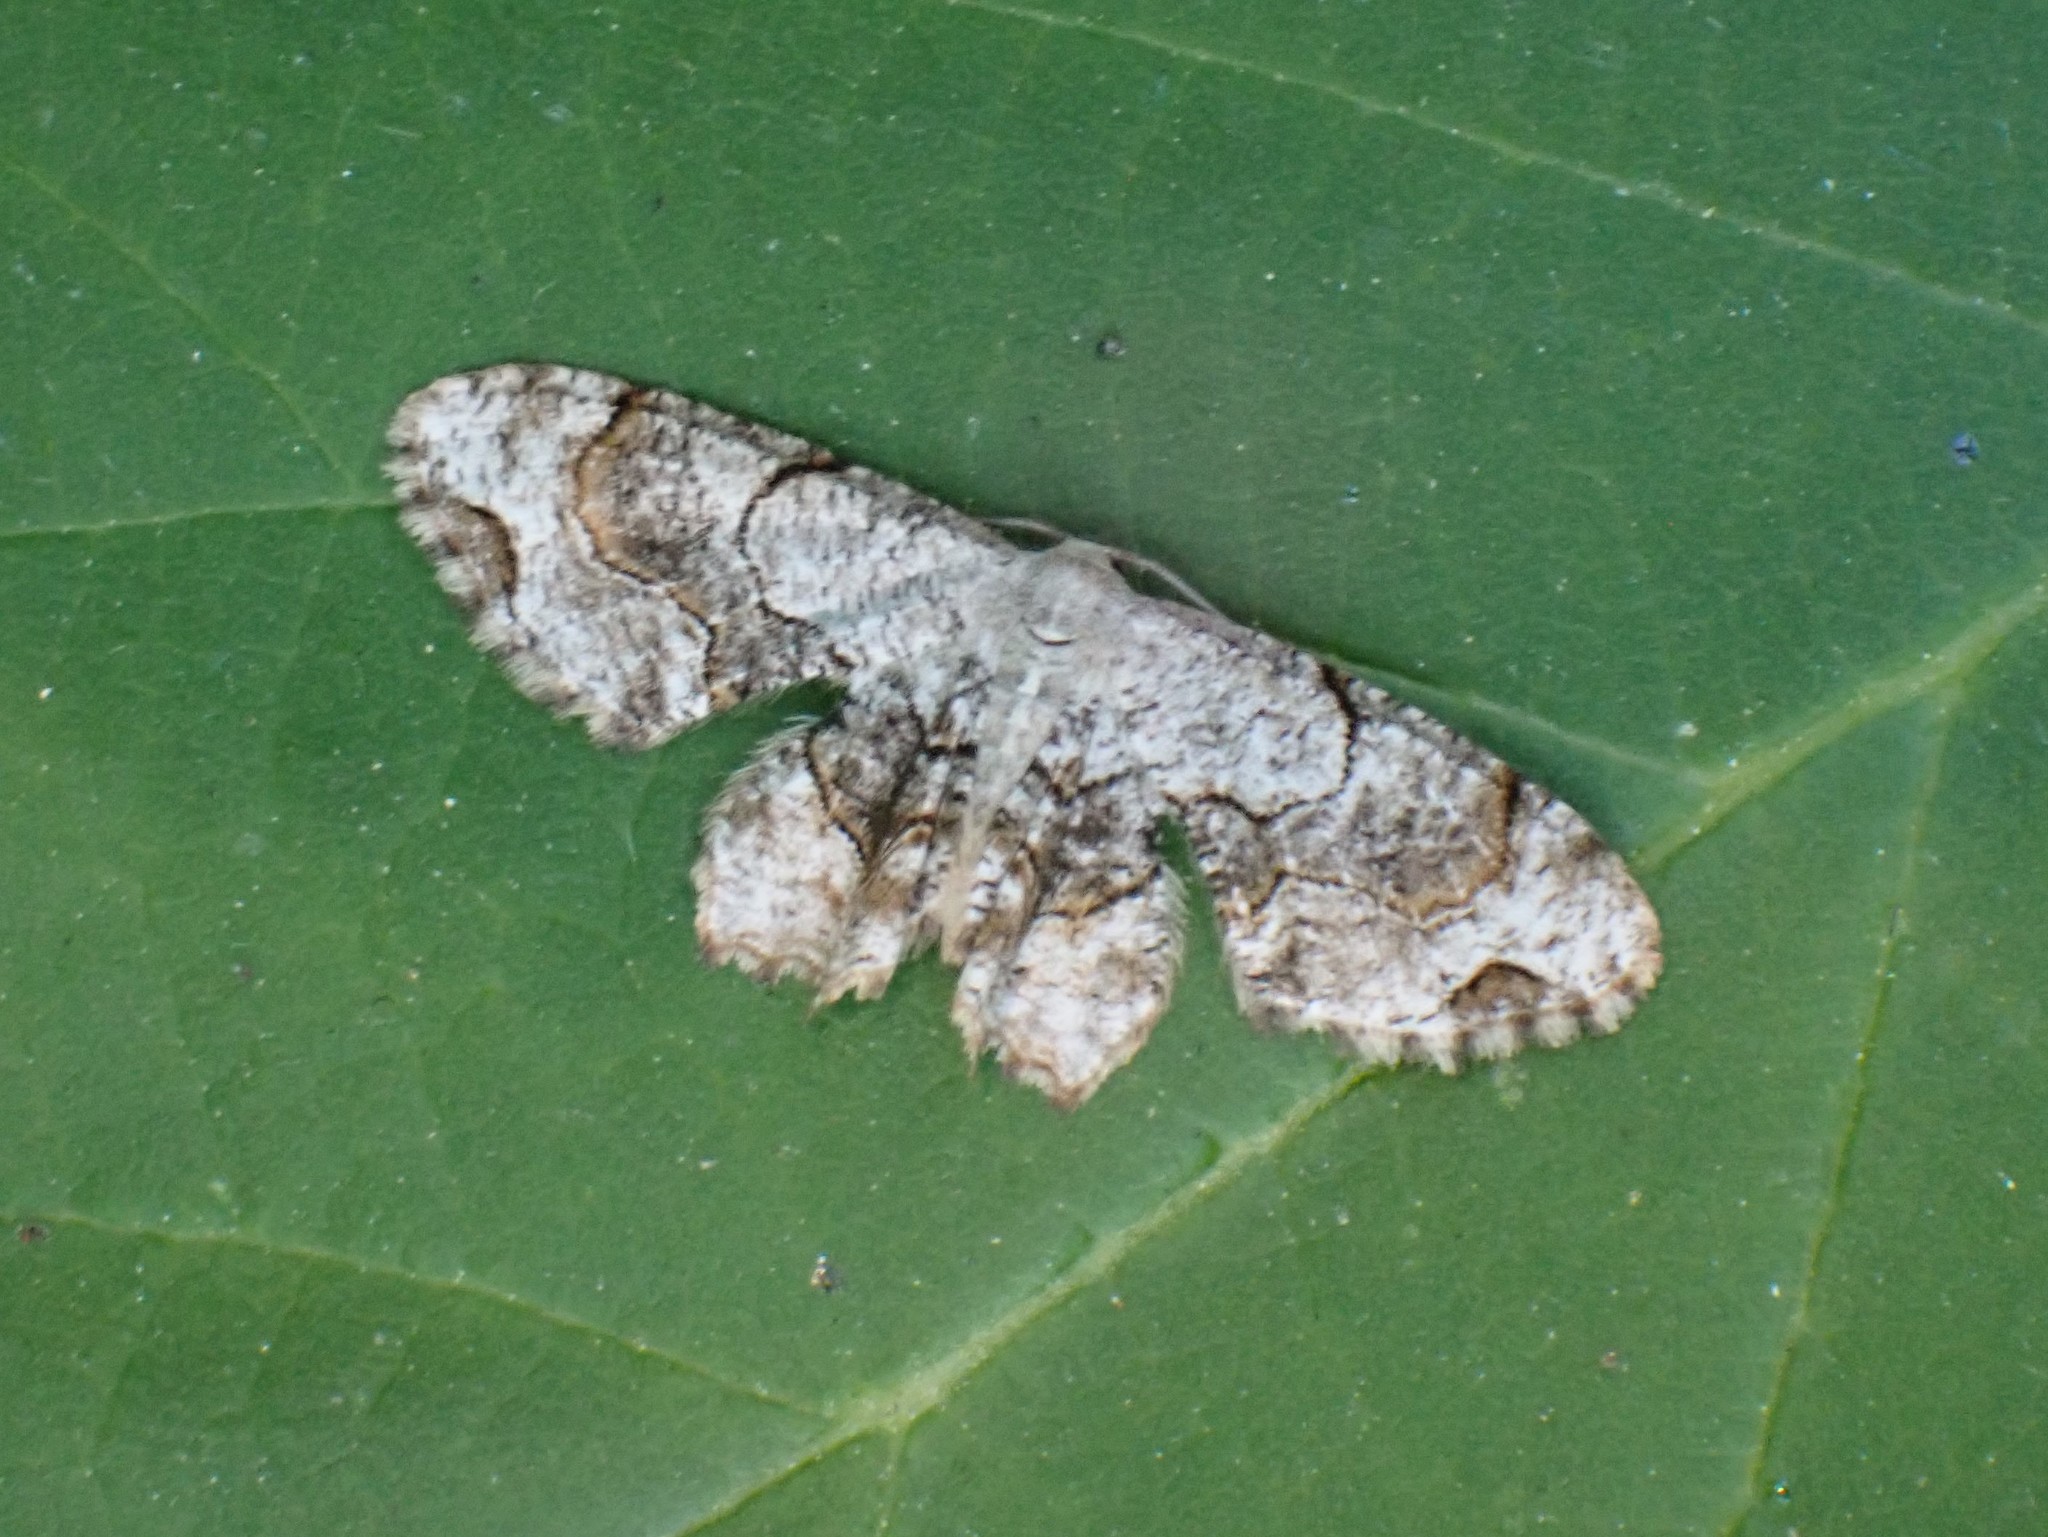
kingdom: Animalia
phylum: Arthropoda
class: Insecta
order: Lepidoptera
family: Uraniidae
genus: Epiplema
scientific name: Epiplema Callizzia amorata
